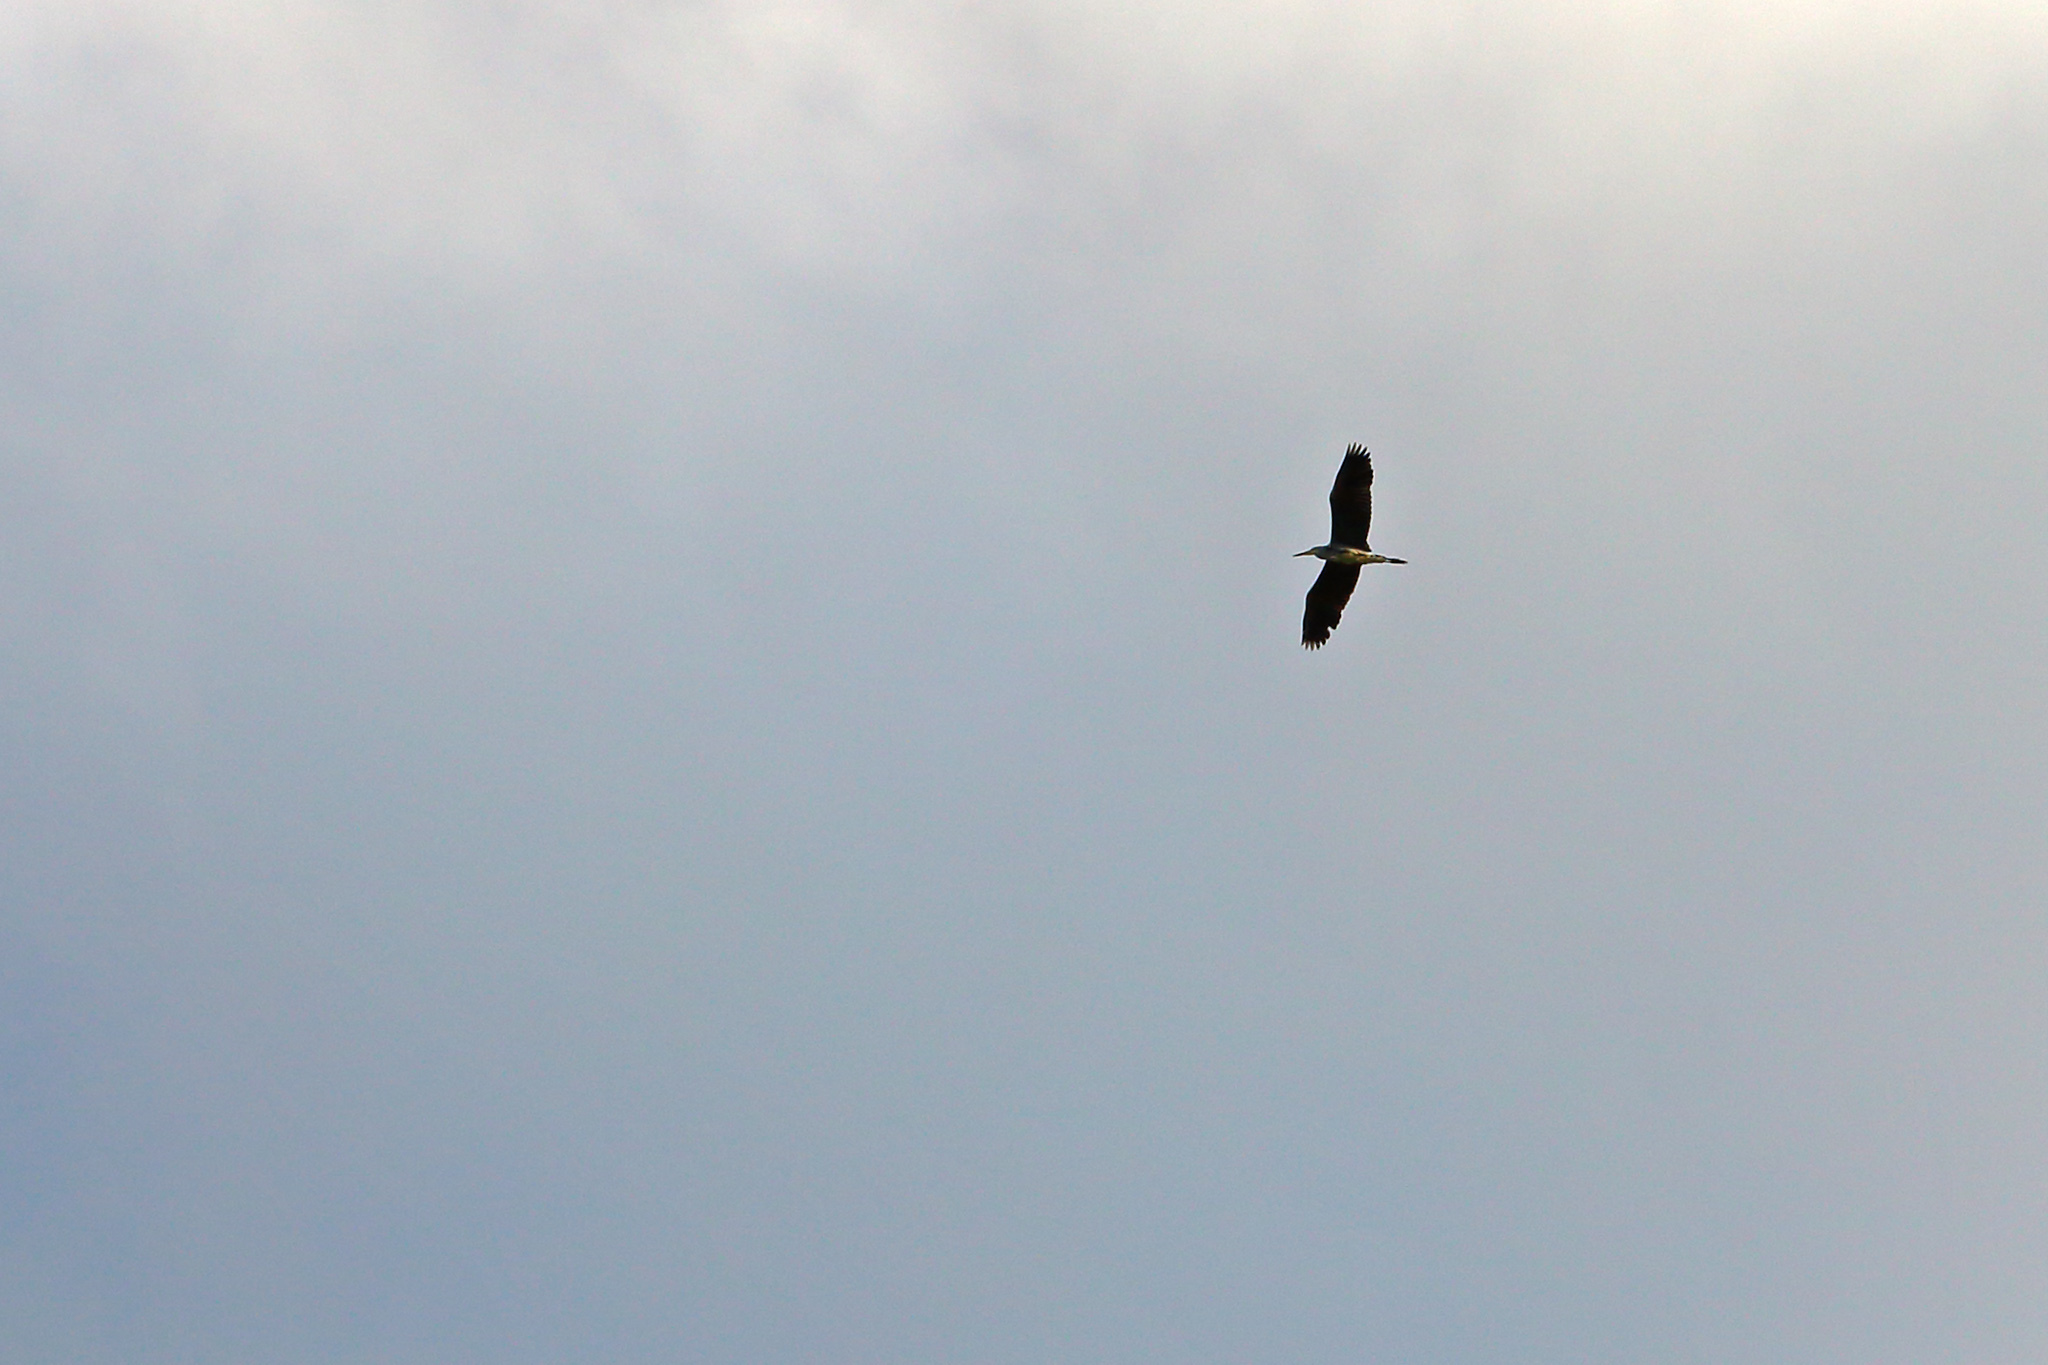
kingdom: Animalia
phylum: Chordata
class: Aves
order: Pelecaniformes
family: Ardeidae
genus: Ardea
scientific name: Ardea cinerea
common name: Grey heron
